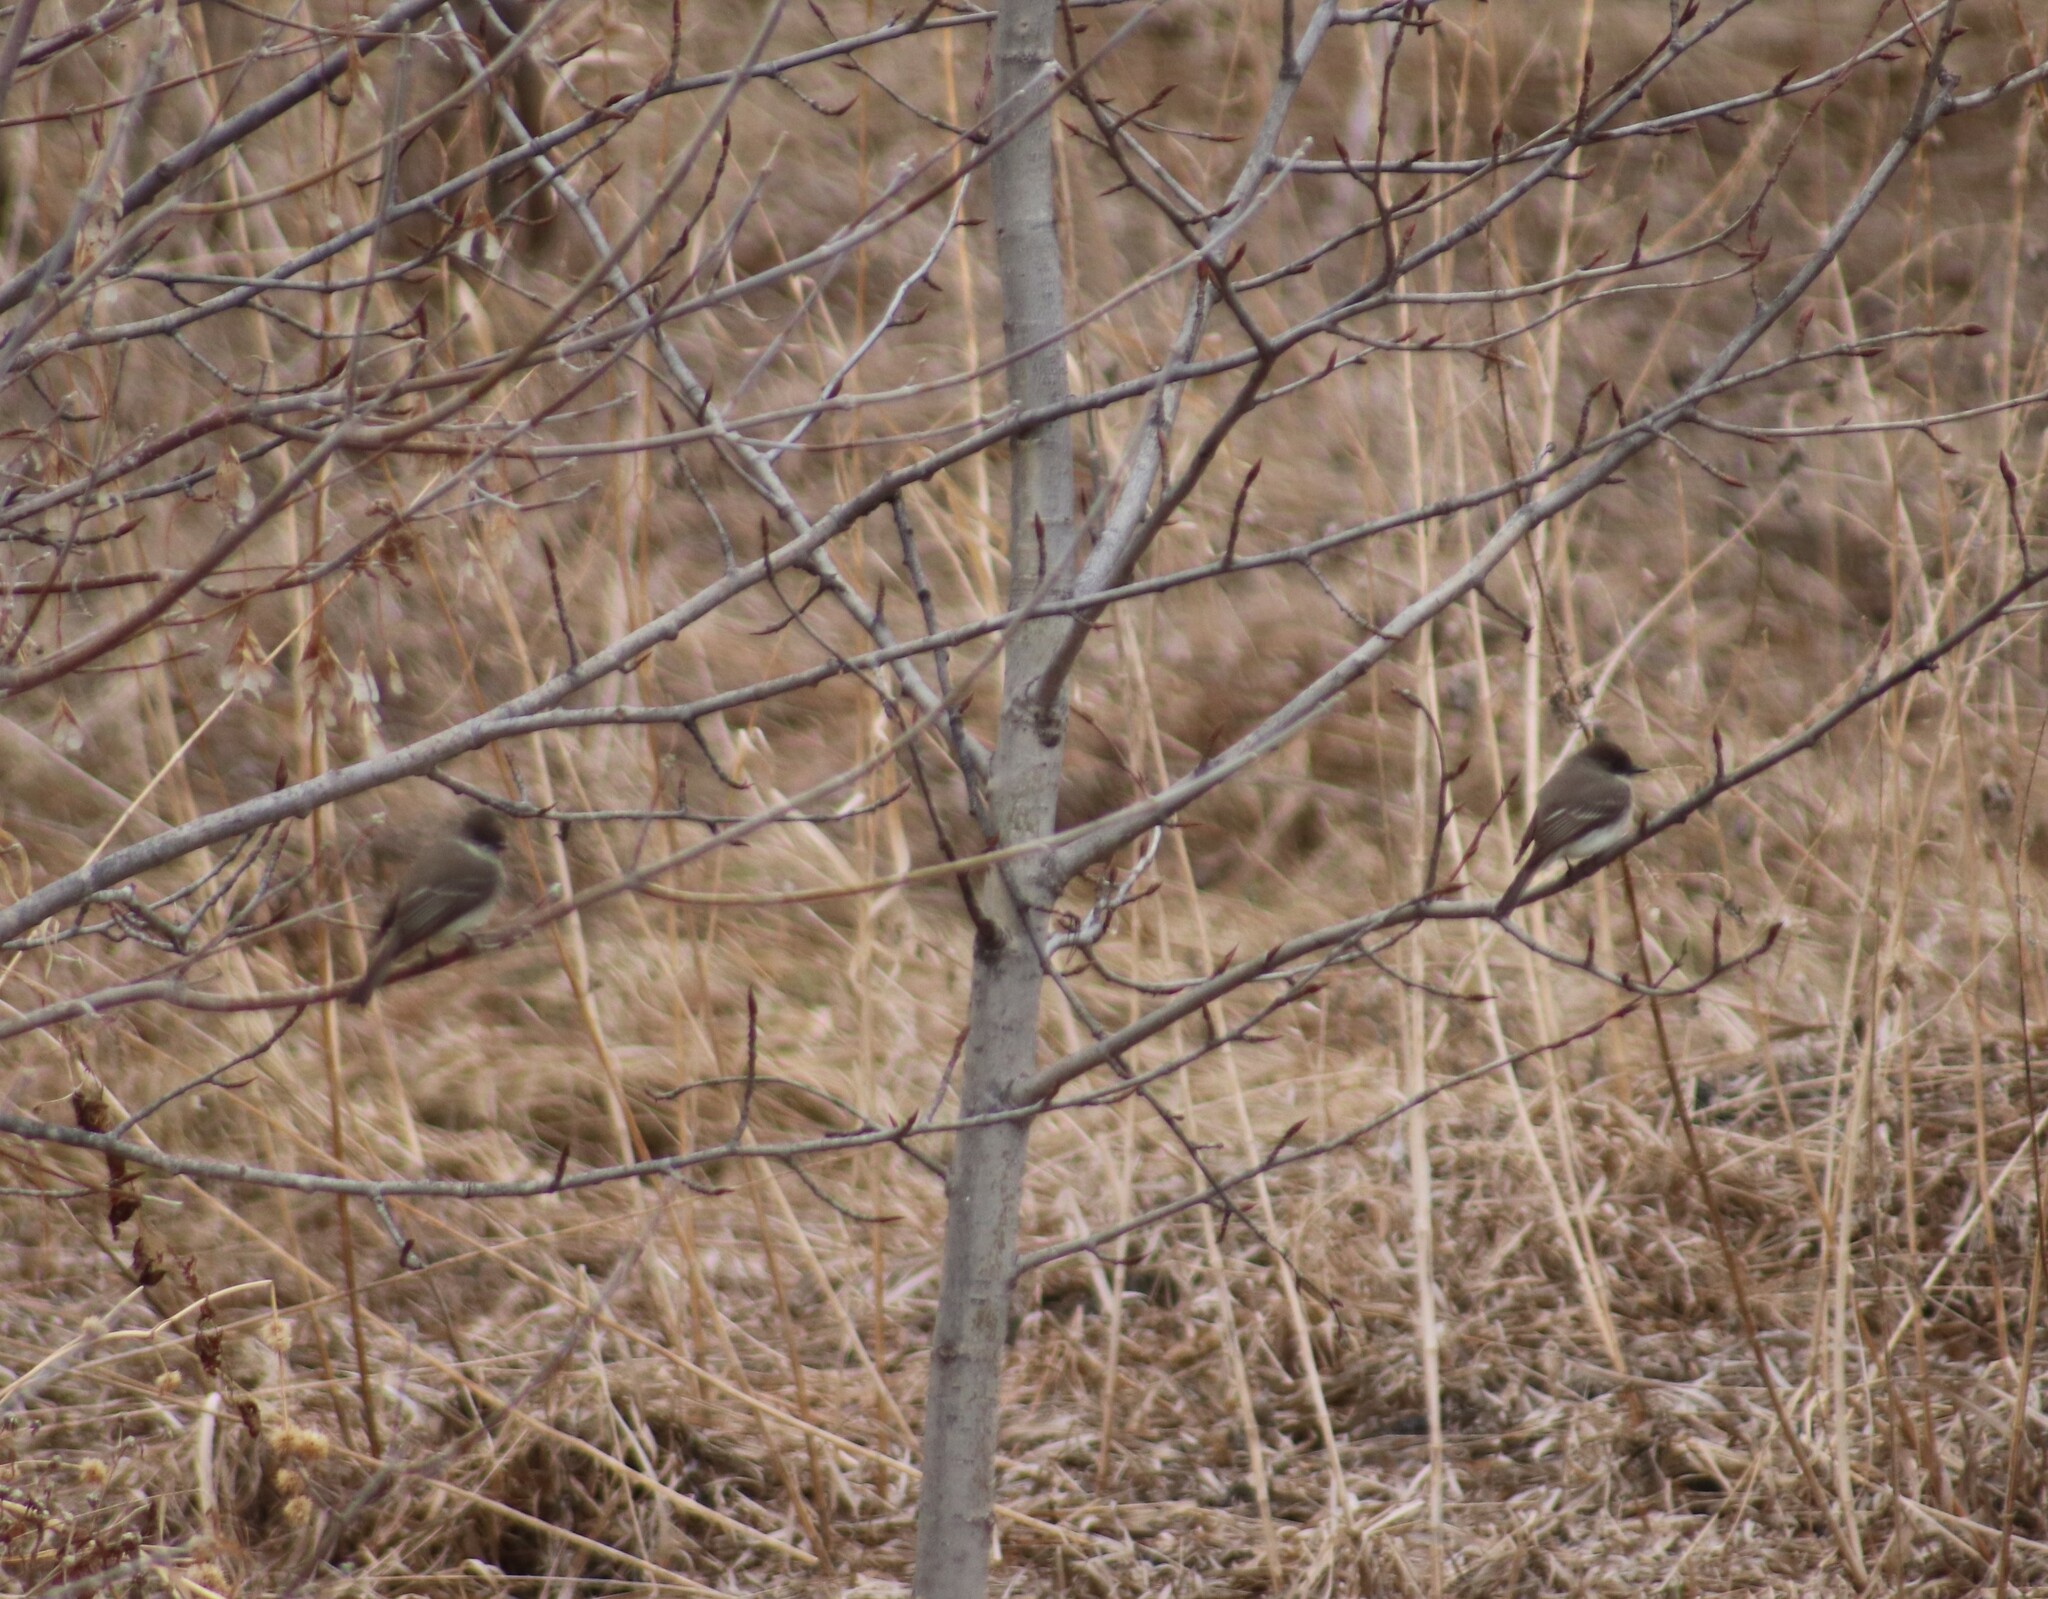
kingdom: Animalia
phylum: Chordata
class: Aves
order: Passeriformes
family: Tyrannidae
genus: Sayornis
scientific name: Sayornis phoebe
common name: Eastern phoebe
